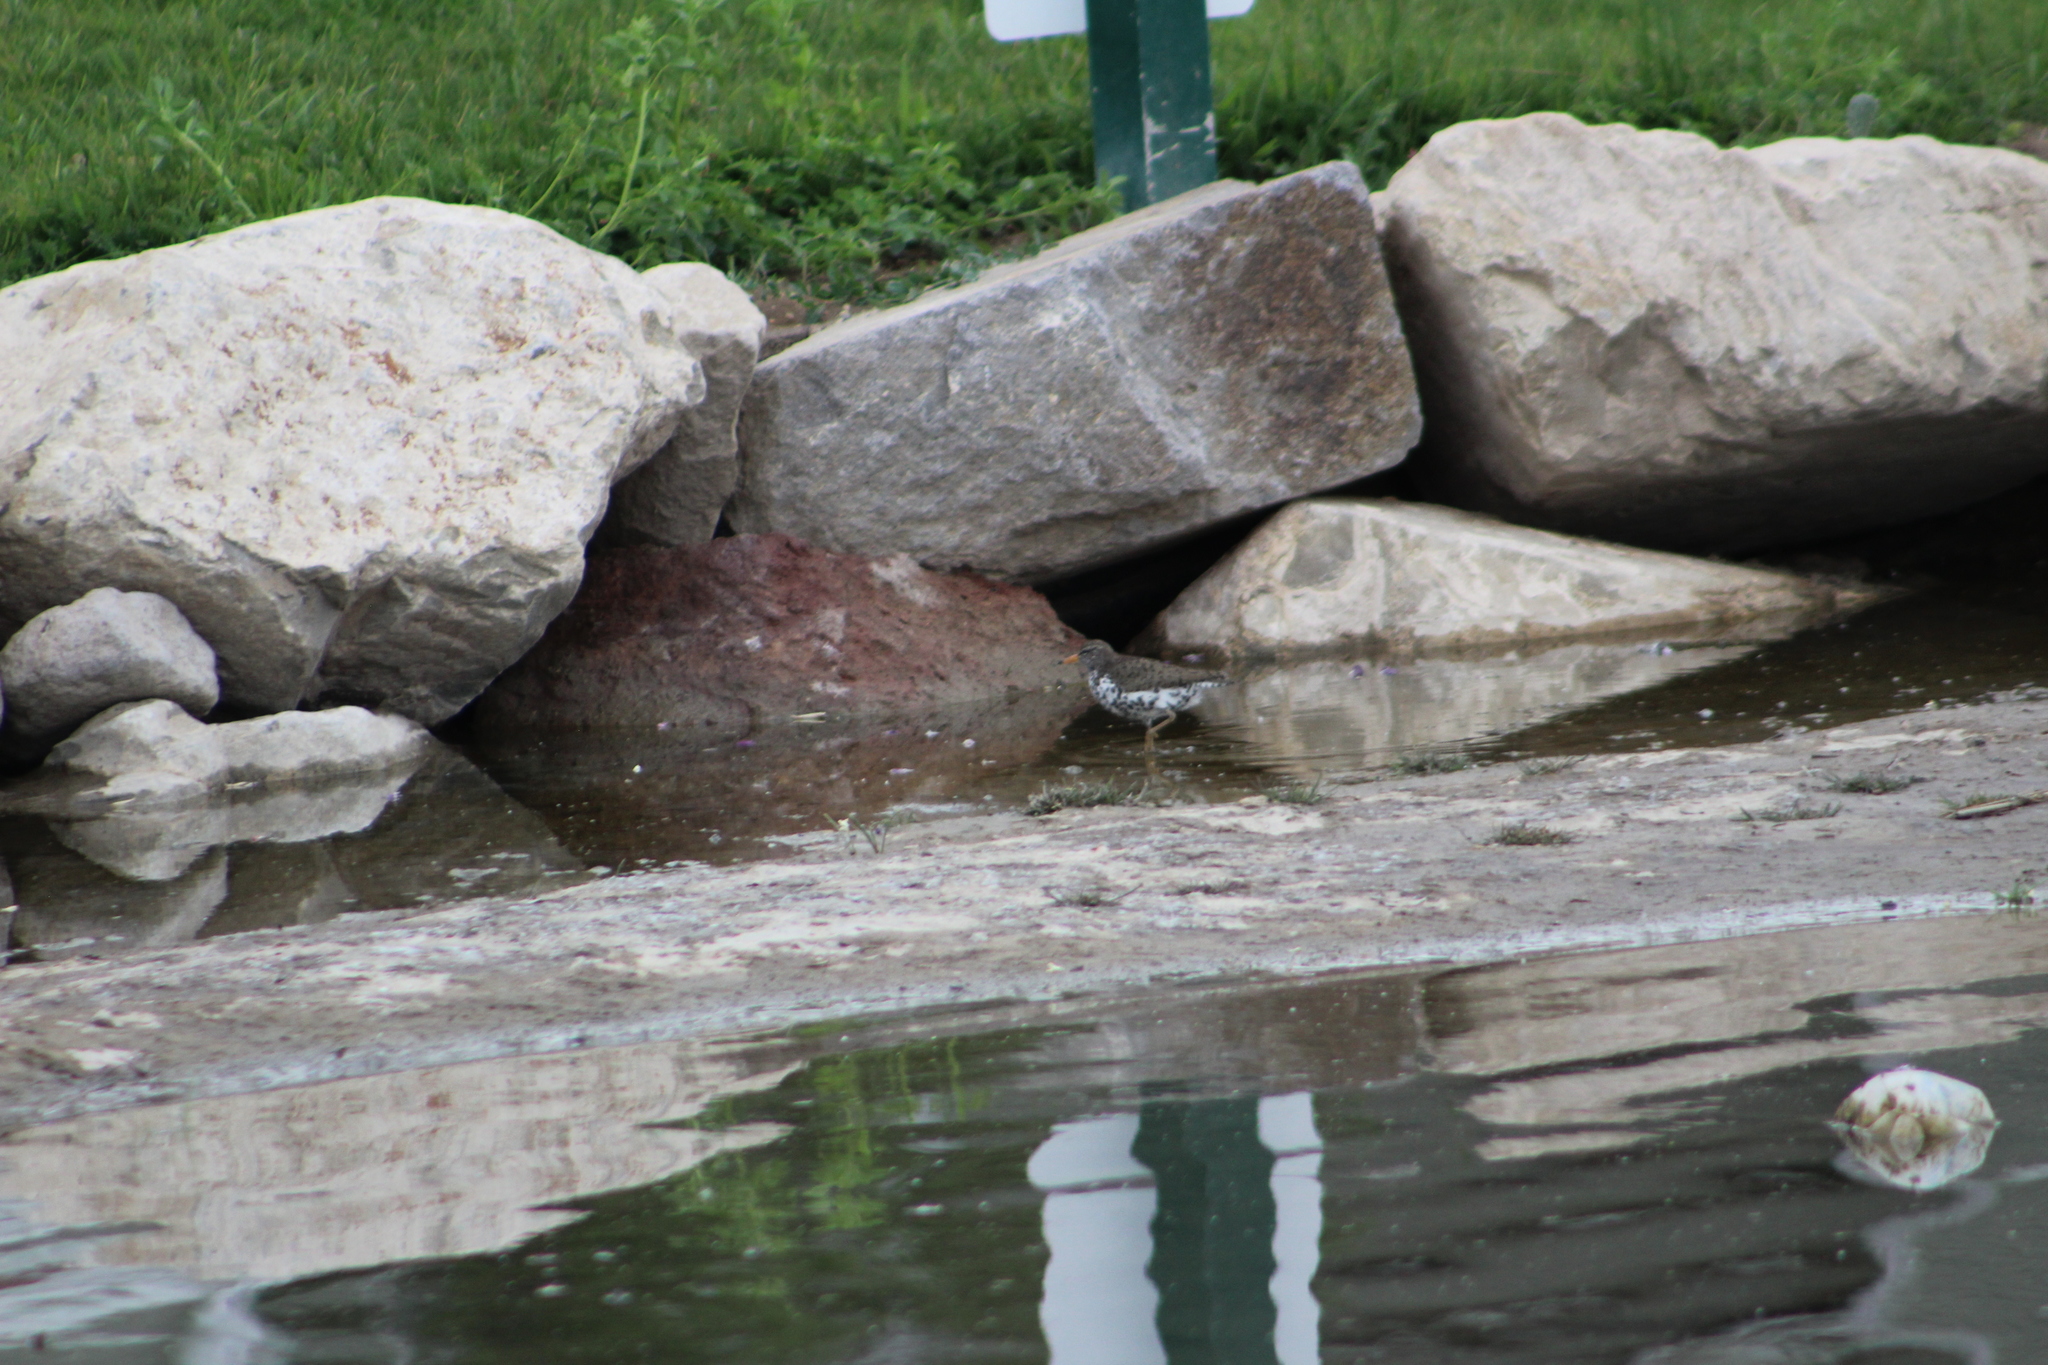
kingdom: Animalia
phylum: Chordata
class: Aves
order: Charadriiformes
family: Scolopacidae
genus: Actitis
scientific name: Actitis macularius
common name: Spotted sandpiper
